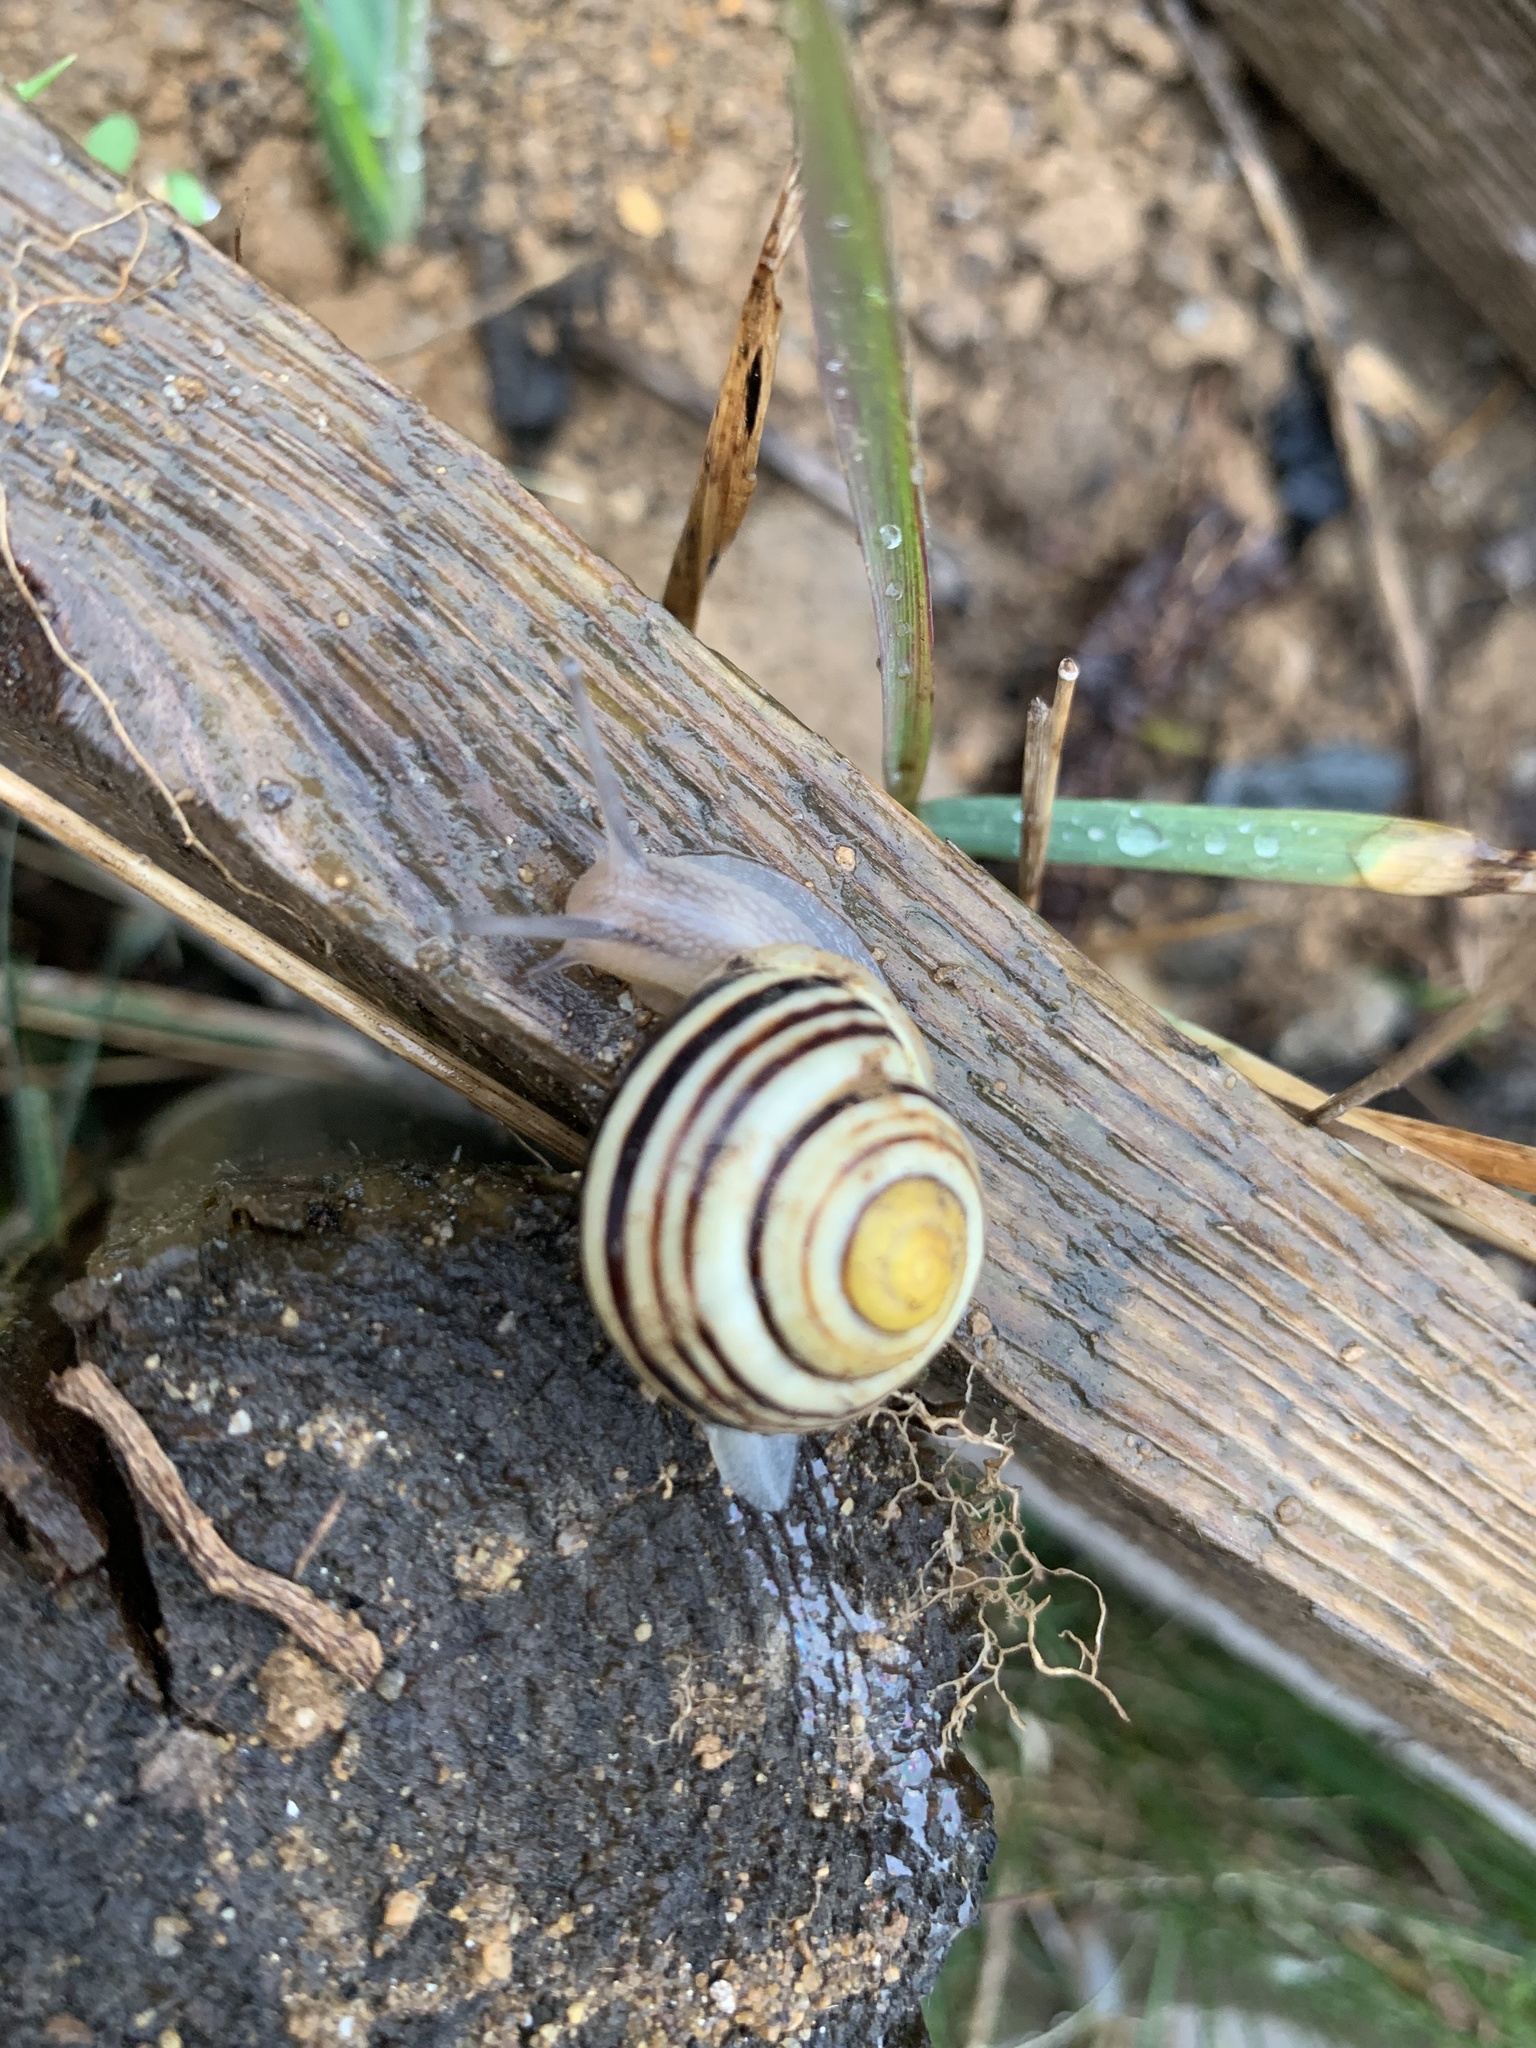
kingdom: Animalia
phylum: Mollusca
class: Gastropoda
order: Stylommatophora
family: Helicidae
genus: Cepaea
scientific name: Cepaea hortensis
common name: White-lip gardensnail
